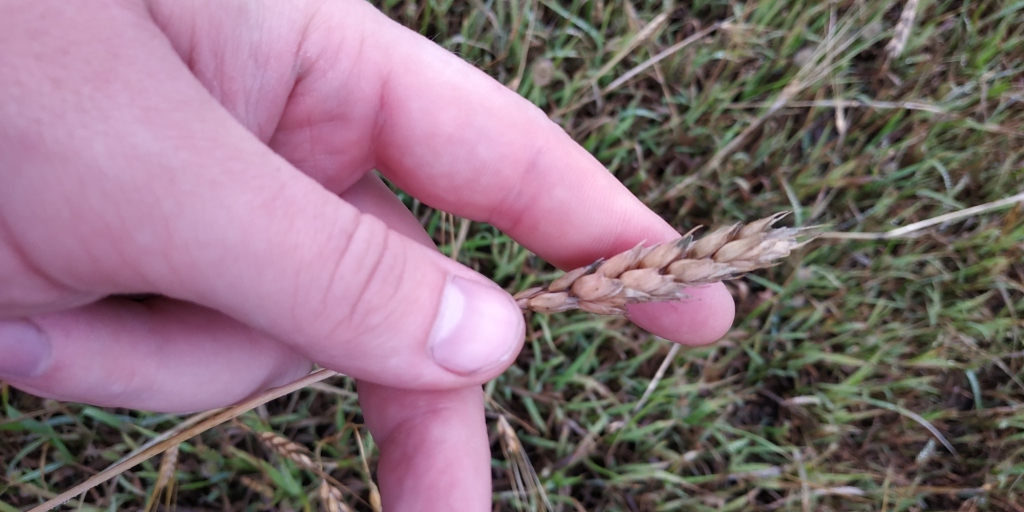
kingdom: Plantae
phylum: Tracheophyta
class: Liliopsida
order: Poales
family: Poaceae
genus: Triticum
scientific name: Triticum aestivum
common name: Common wheat
